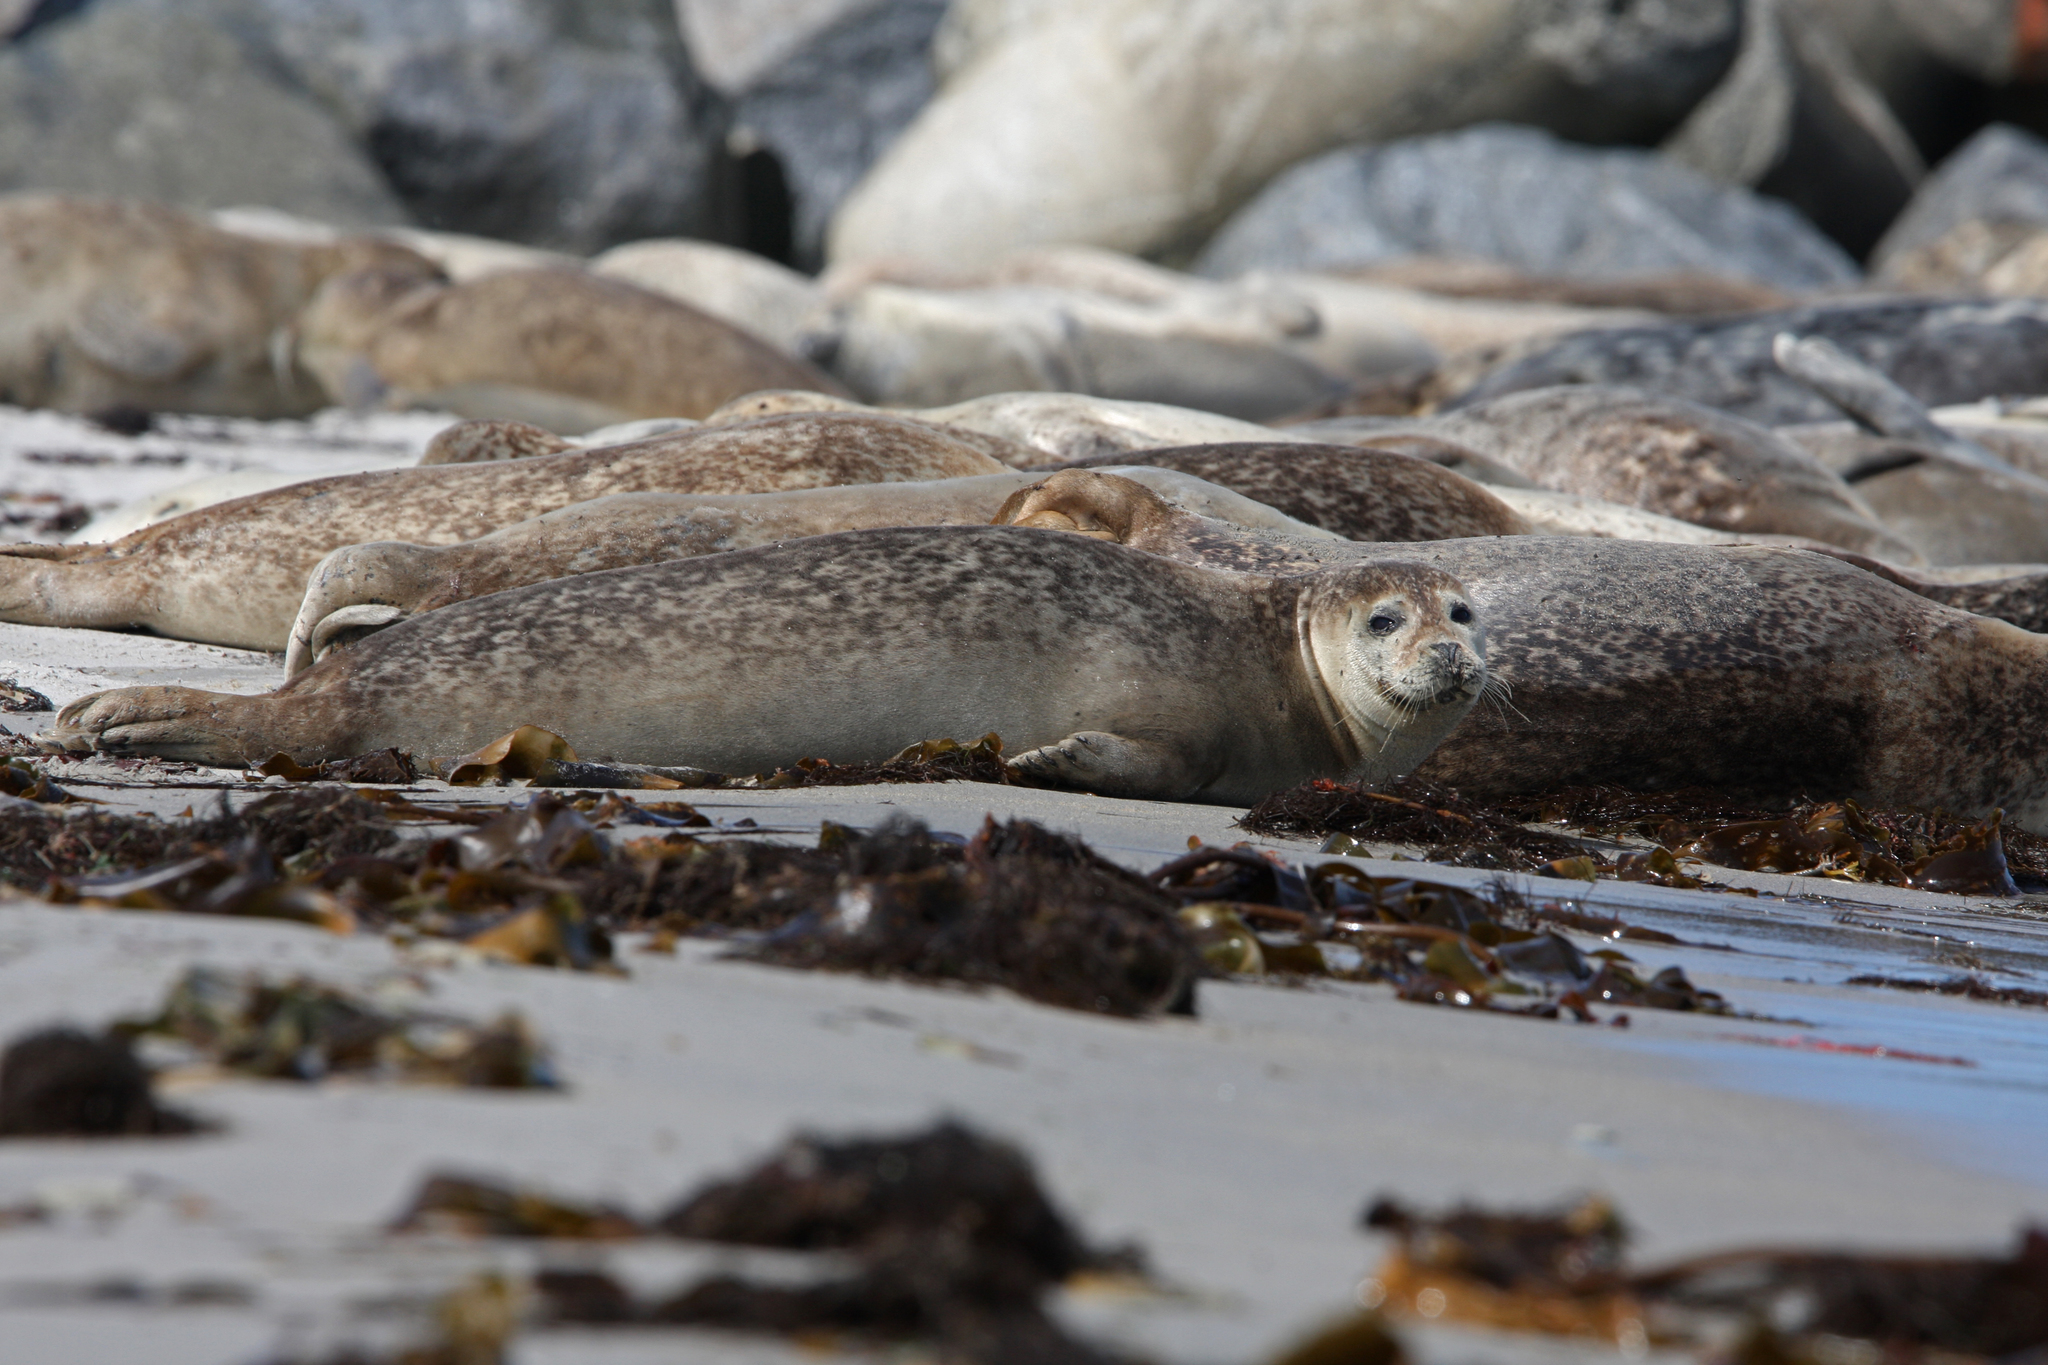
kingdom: Animalia
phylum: Chordata
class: Mammalia
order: Carnivora
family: Phocidae
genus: Phoca
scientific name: Phoca vitulina
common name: Harbor seal
